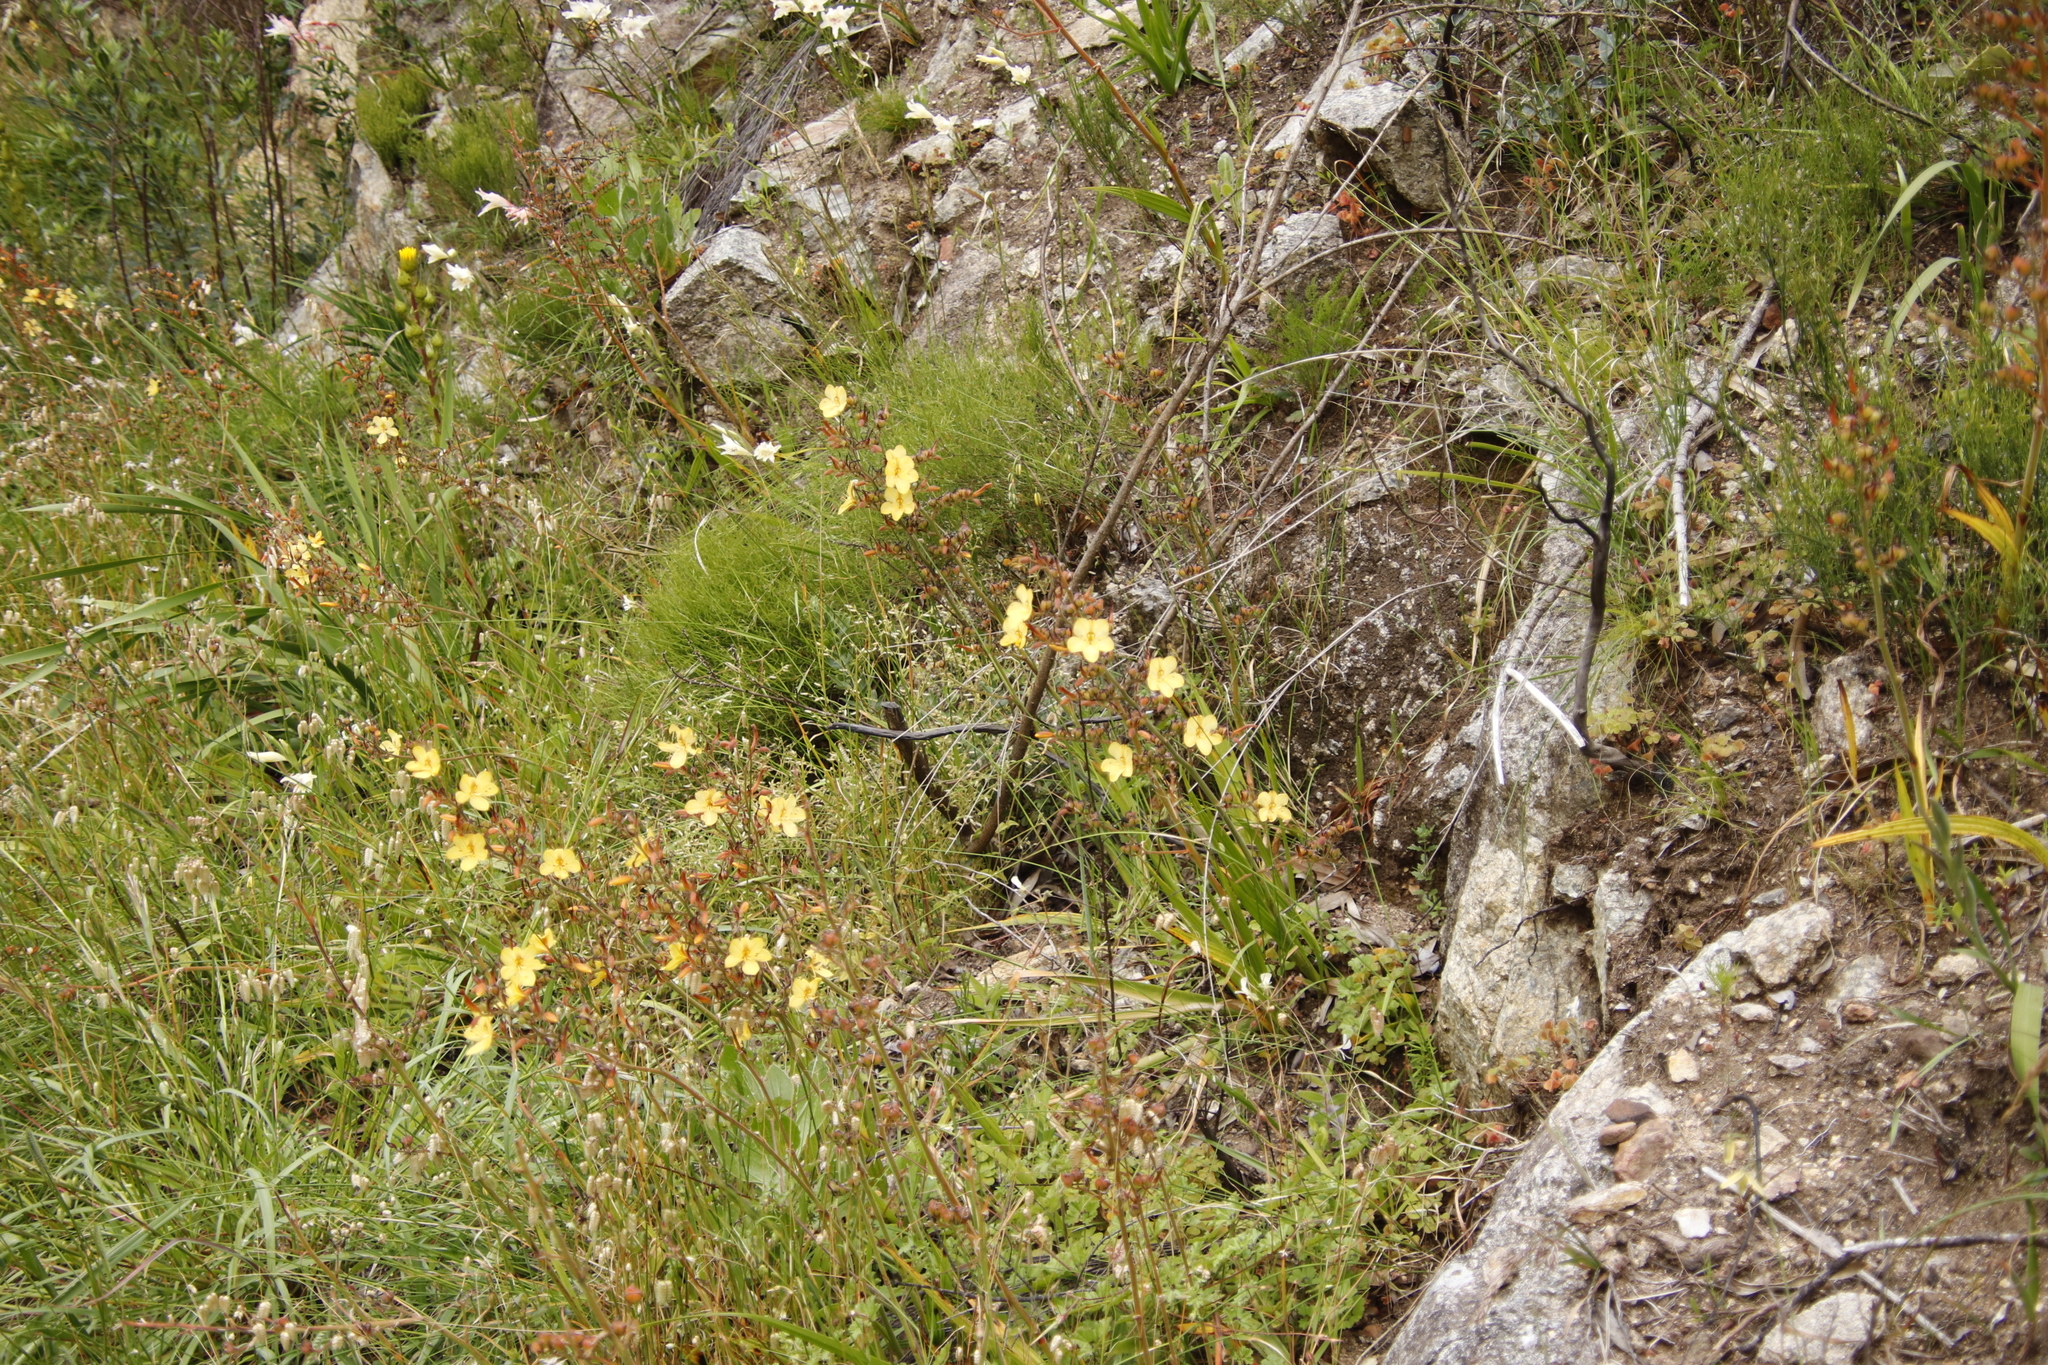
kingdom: Plantae
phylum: Tracheophyta
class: Liliopsida
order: Commelinales
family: Haemodoraceae
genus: Wachendorfia
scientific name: Wachendorfia paniculata
